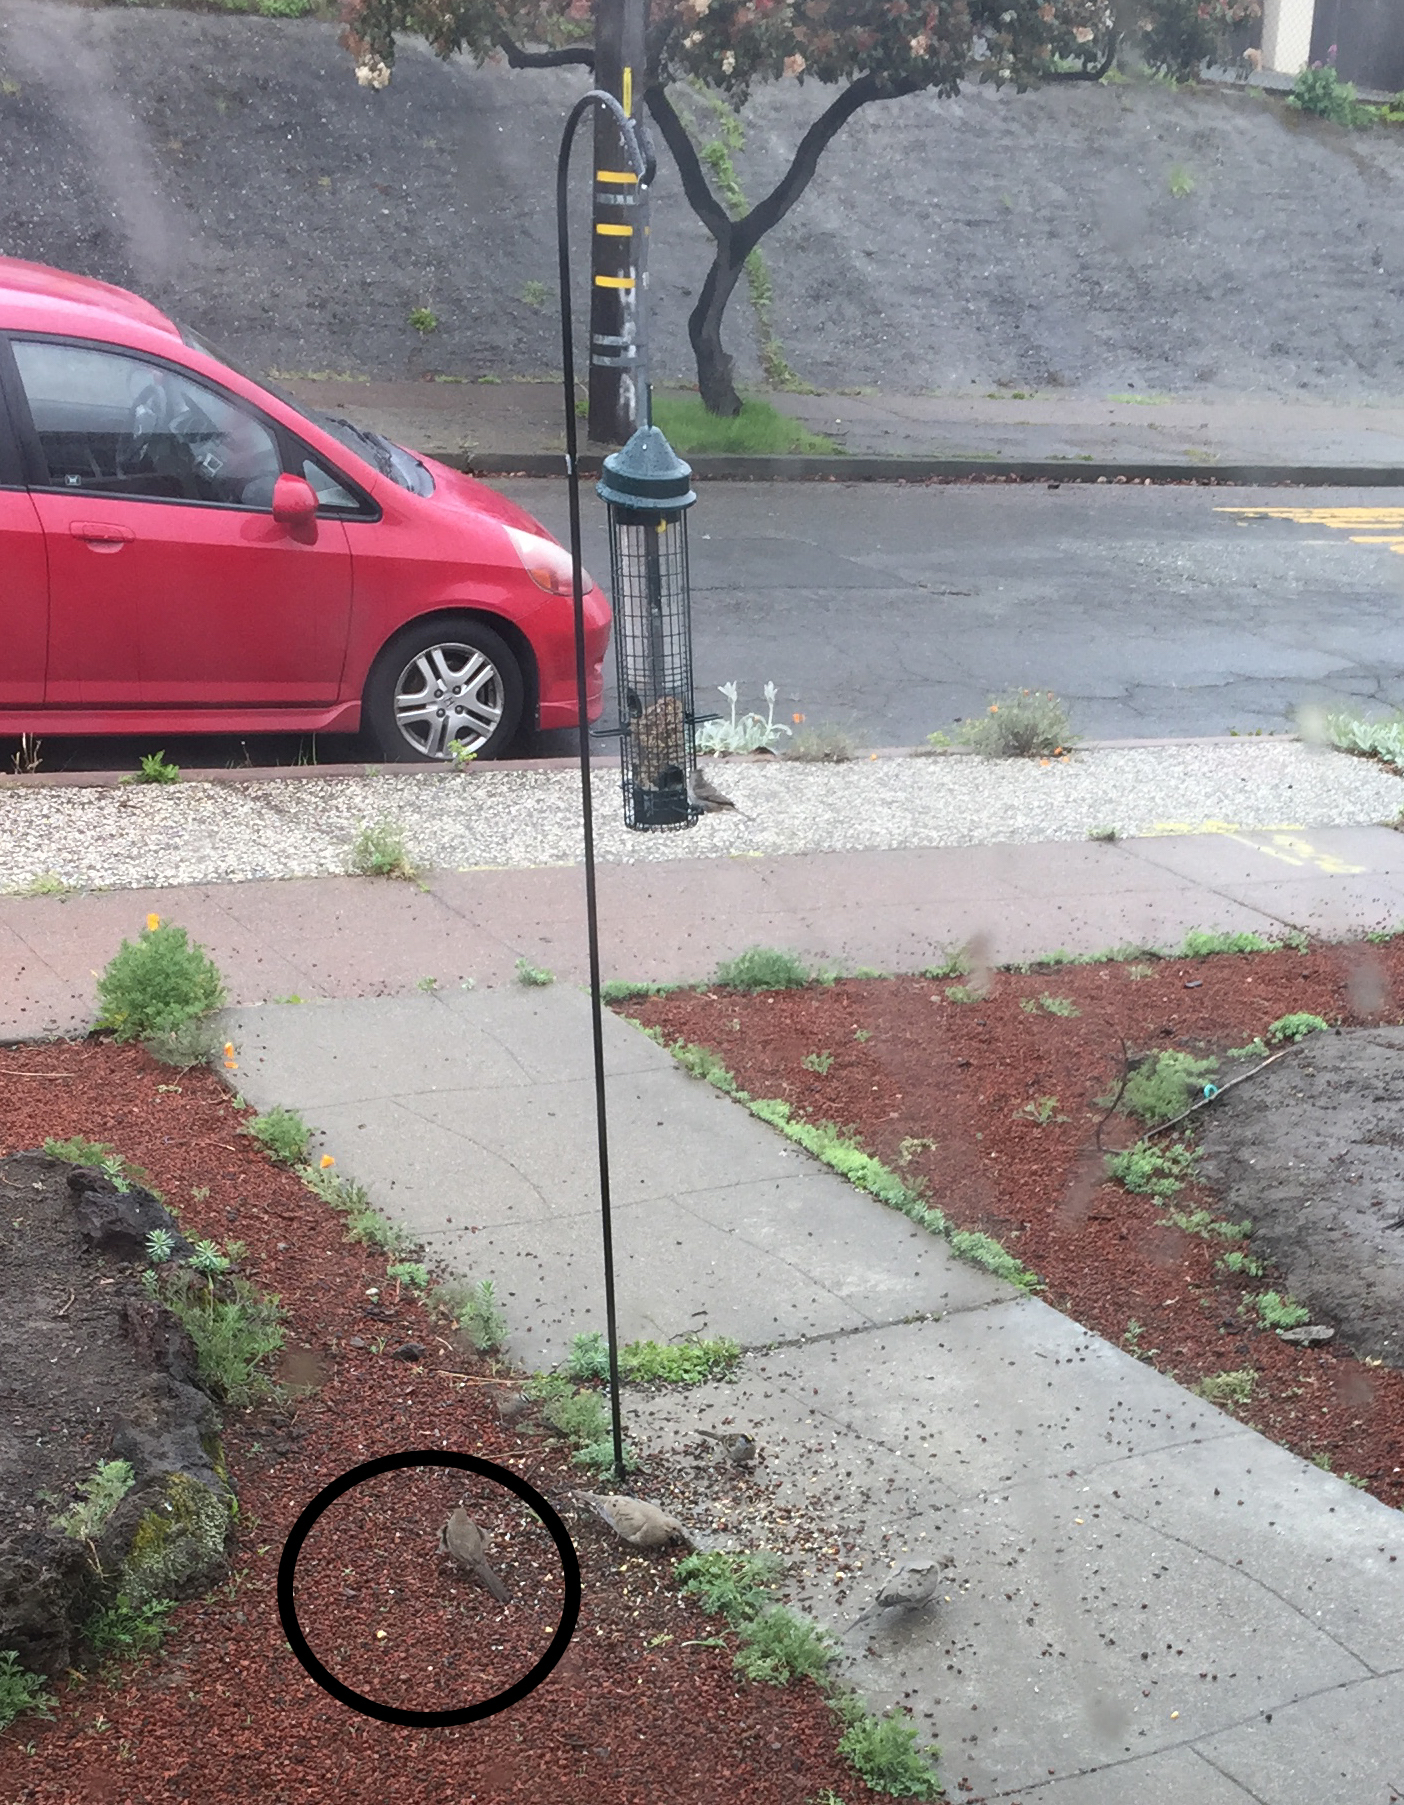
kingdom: Animalia
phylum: Chordata
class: Aves
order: Passeriformes
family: Passerellidae
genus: Melozone
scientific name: Melozone crissalis
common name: California towhee
